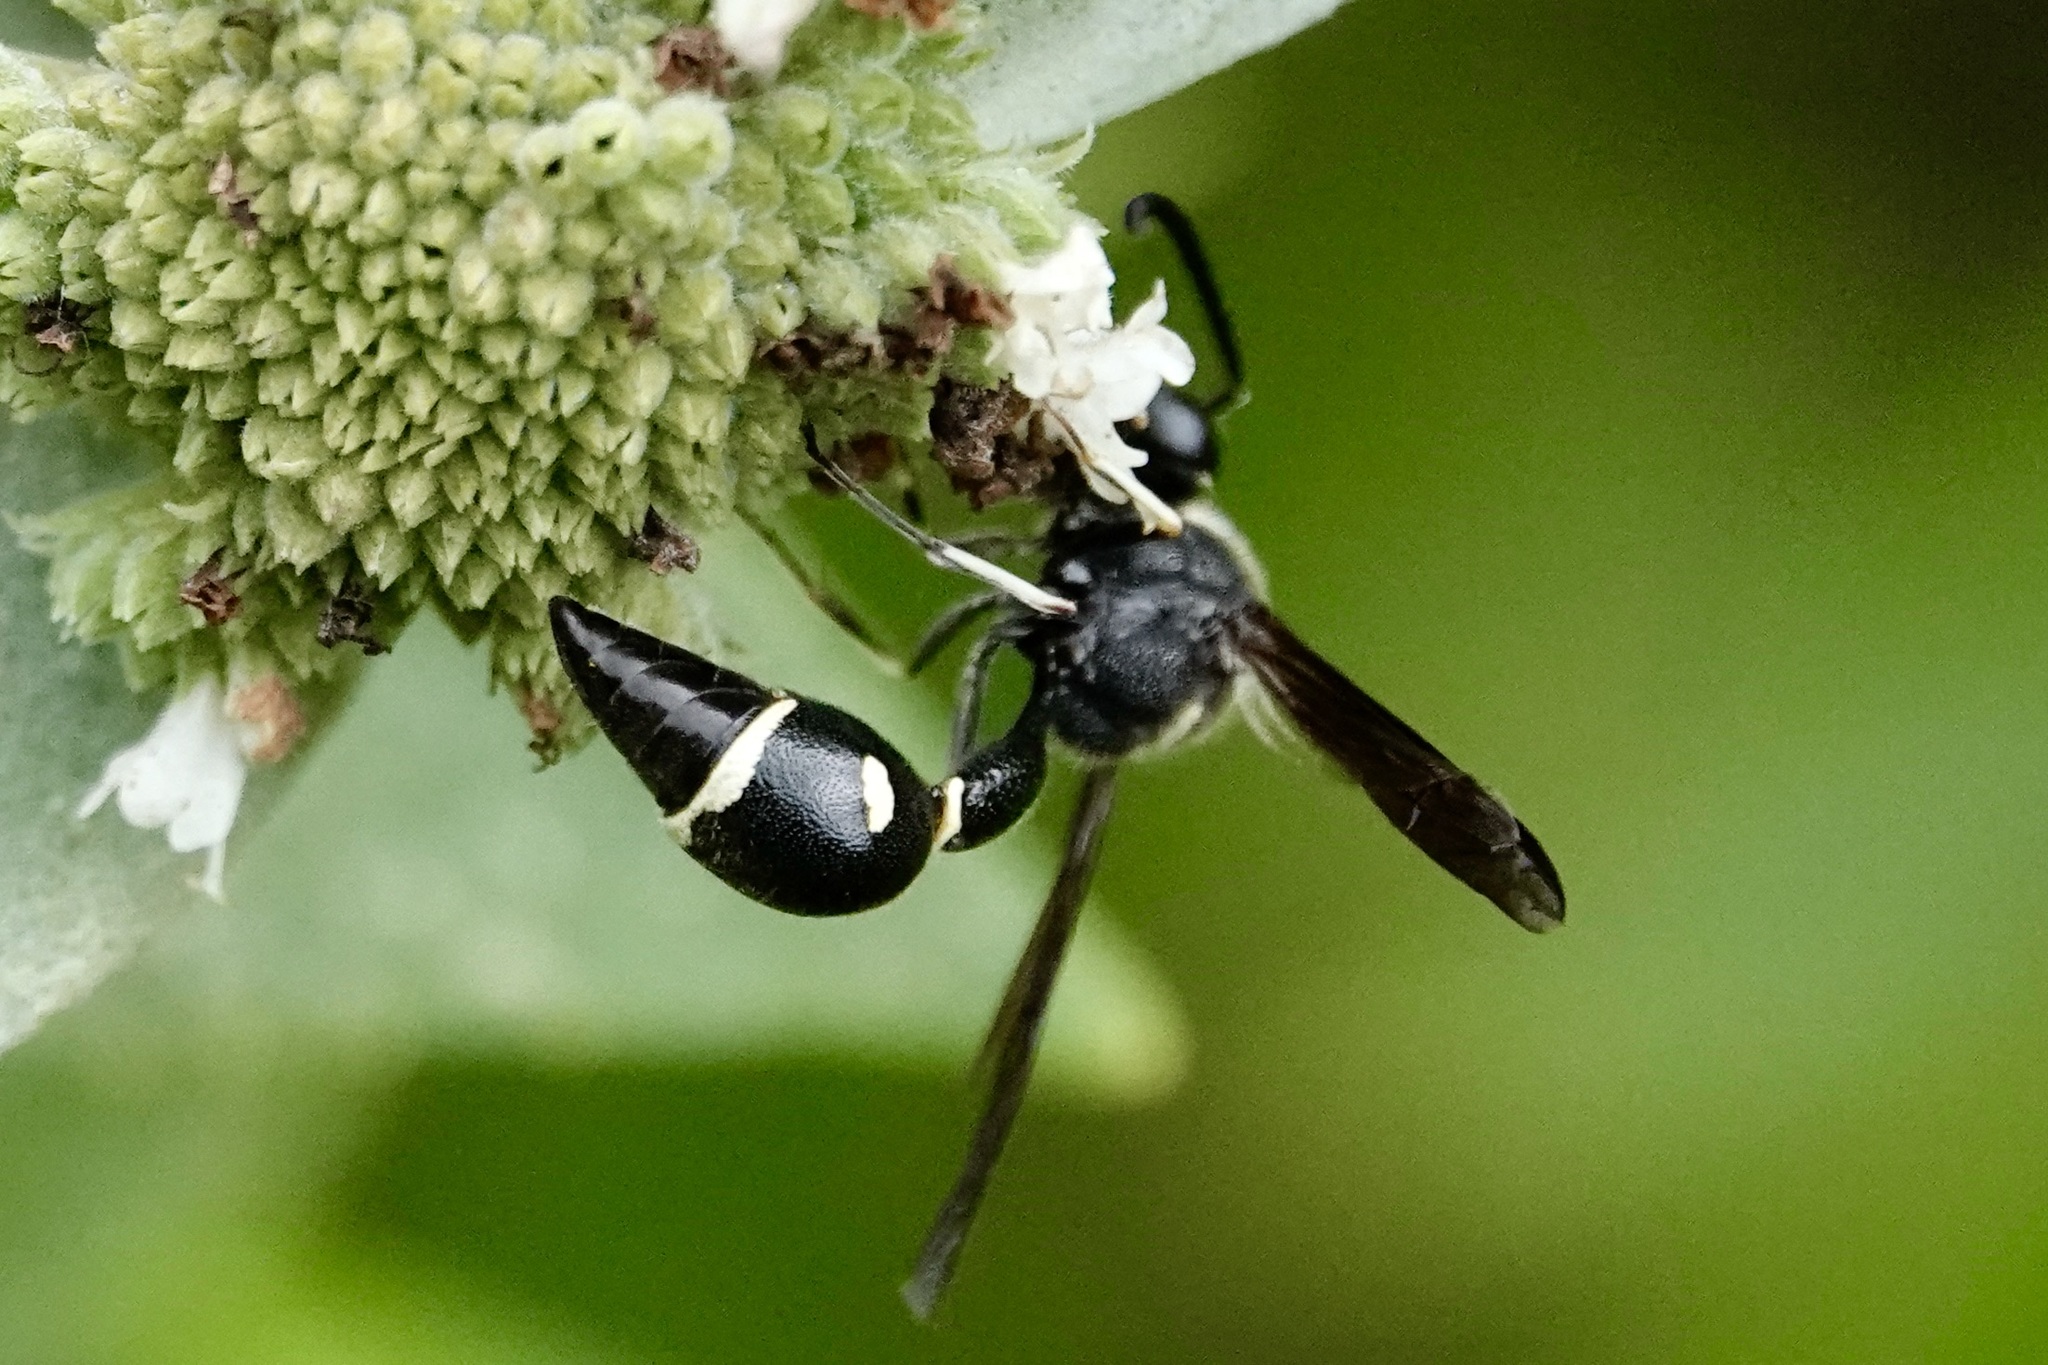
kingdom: Animalia
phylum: Arthropoda
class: Insecta
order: Hymenoptera
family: Vespidae
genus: Eumenes
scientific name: Eumenes fraternus
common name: Fraternal potter wasp
